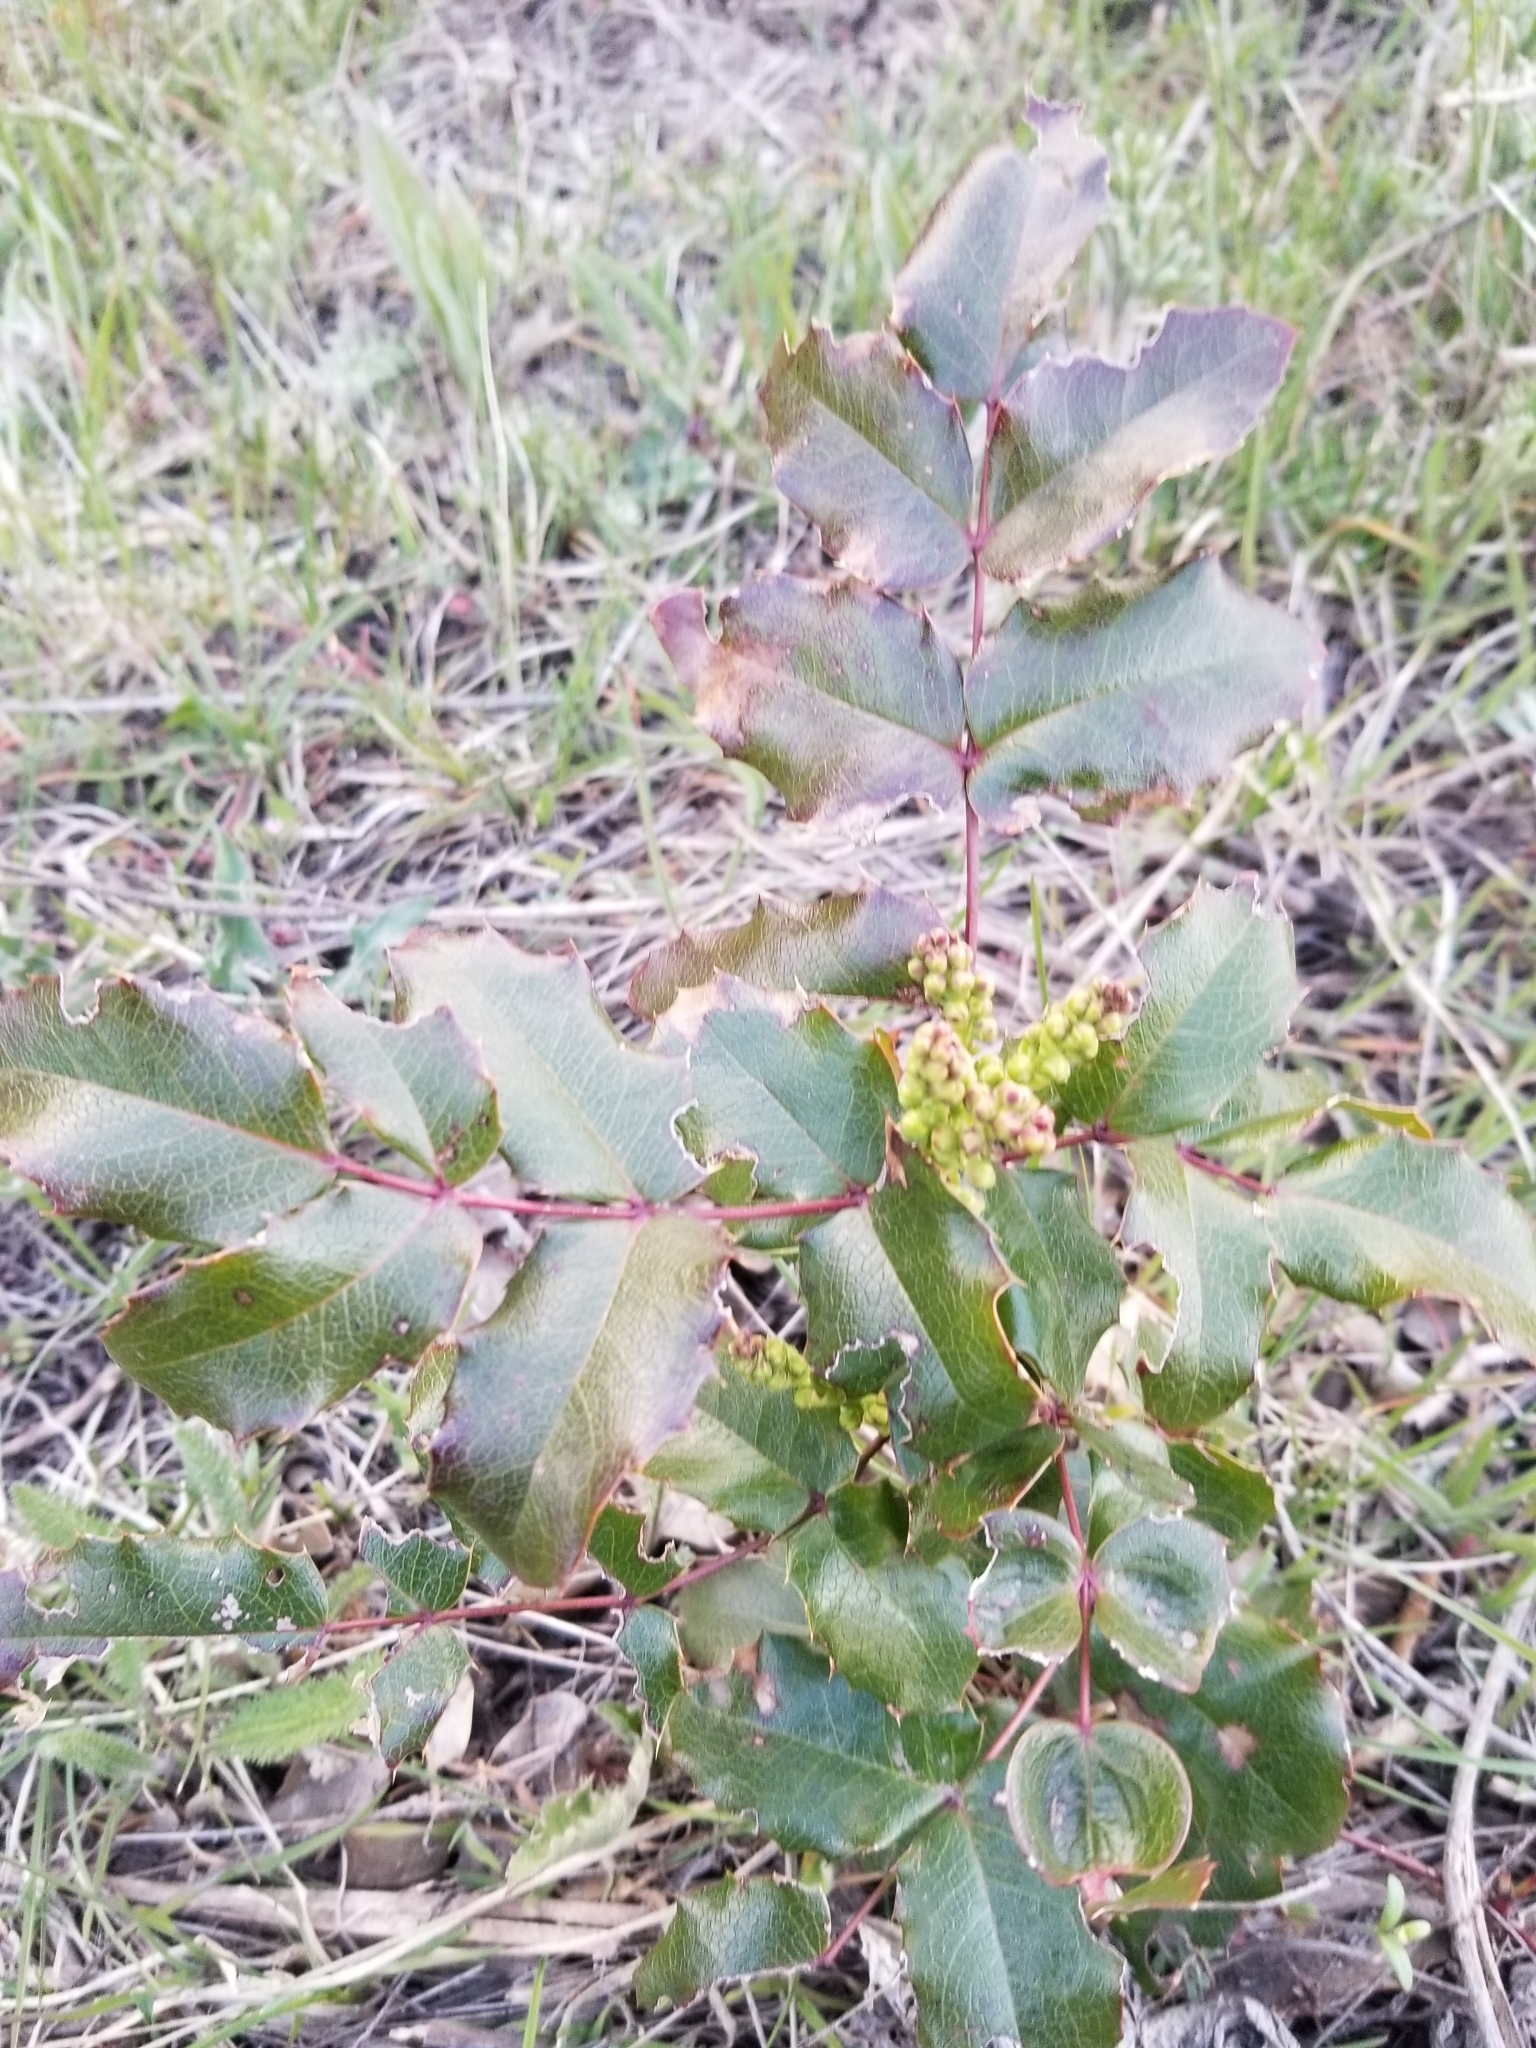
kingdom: Plantae
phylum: Tracheophyta
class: Magnoliopsida
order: Ranunculales
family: Berberidaceae
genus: Mahonia
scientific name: Mahonia aquifolium
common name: Oregon-grape
